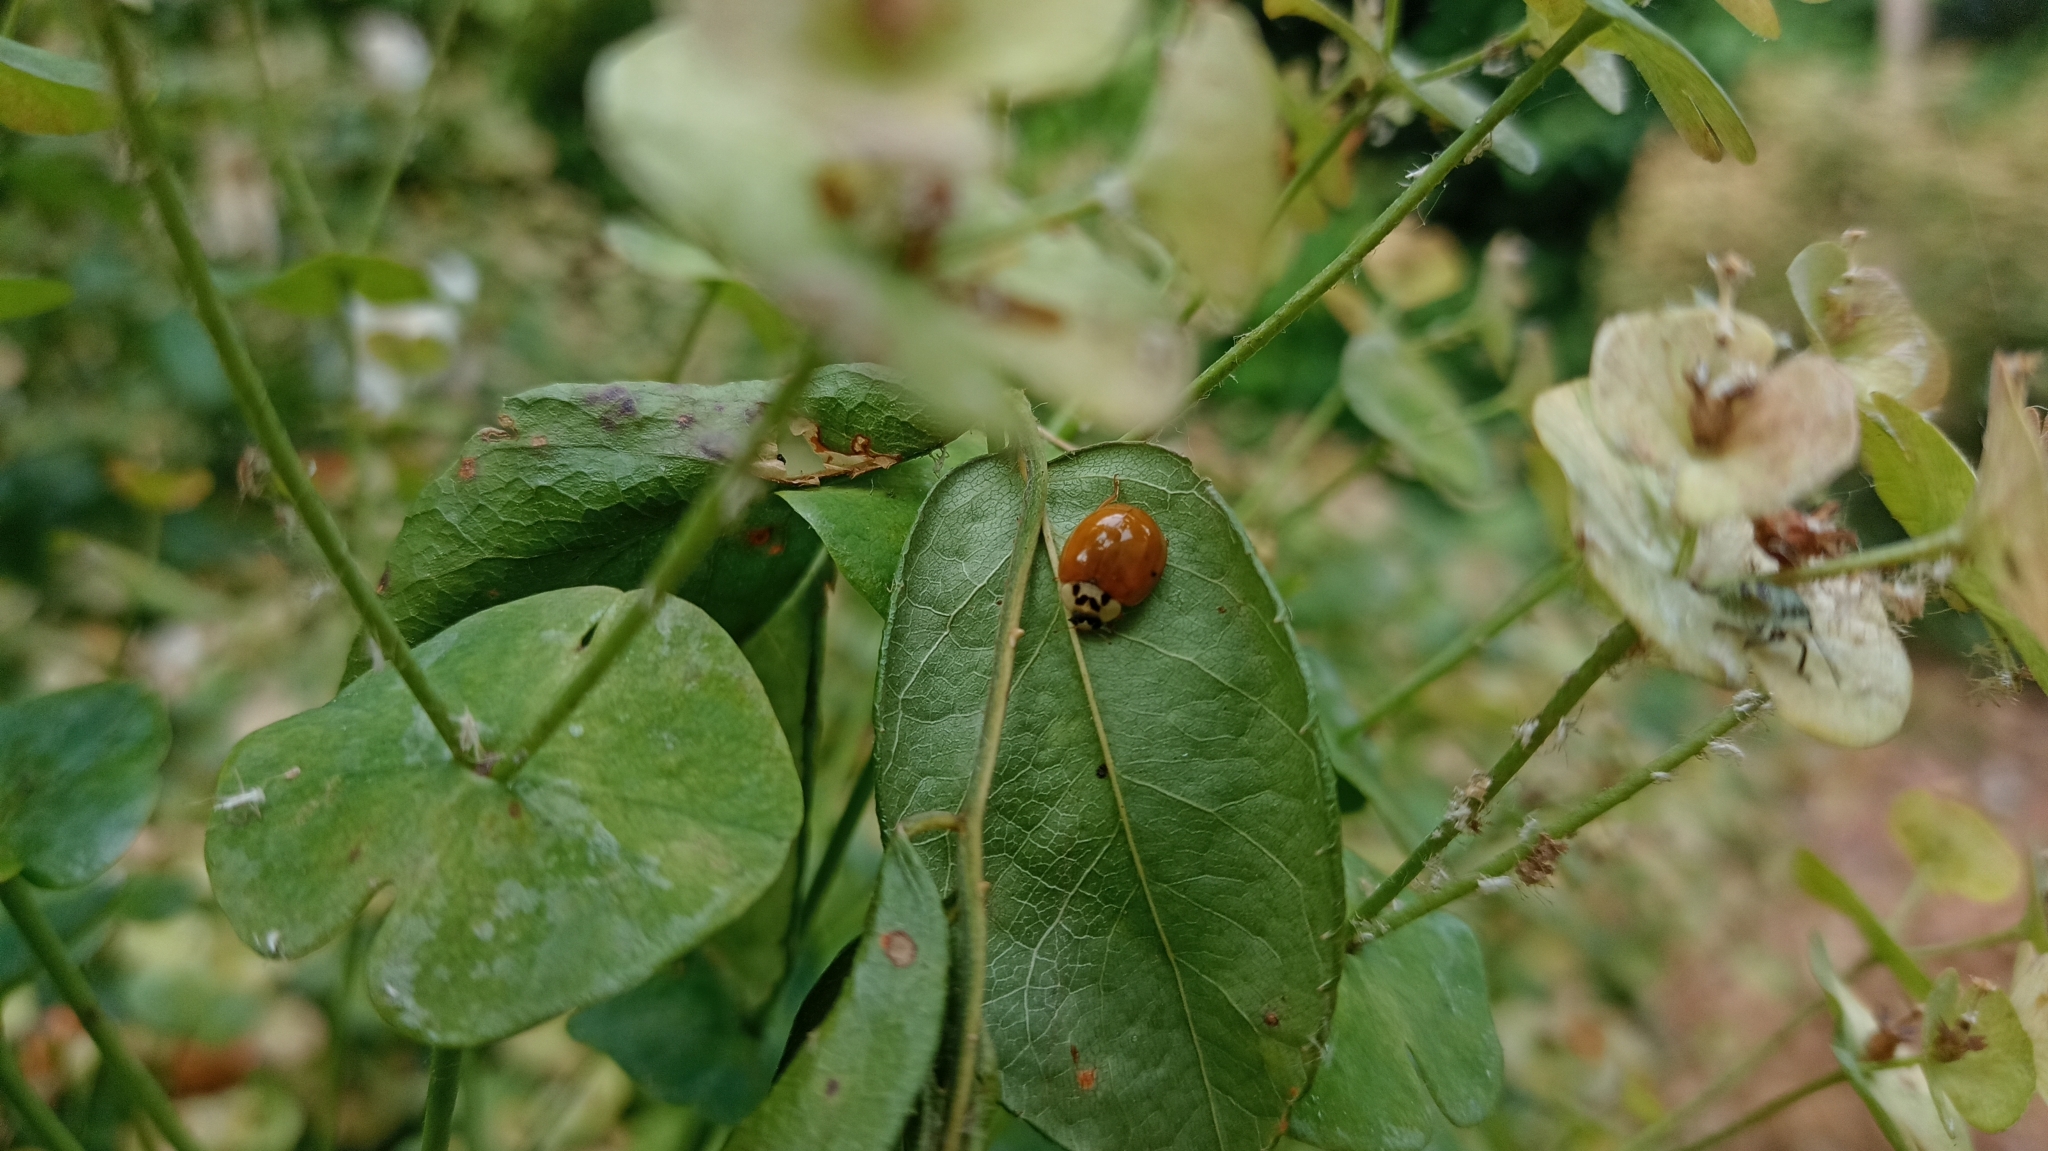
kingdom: Animalia
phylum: Arthropoda
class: Insecta
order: Coleoptera
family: Coccinellidae
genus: Harmonia
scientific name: Harmonia axyridis
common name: Harlequin ladybird
